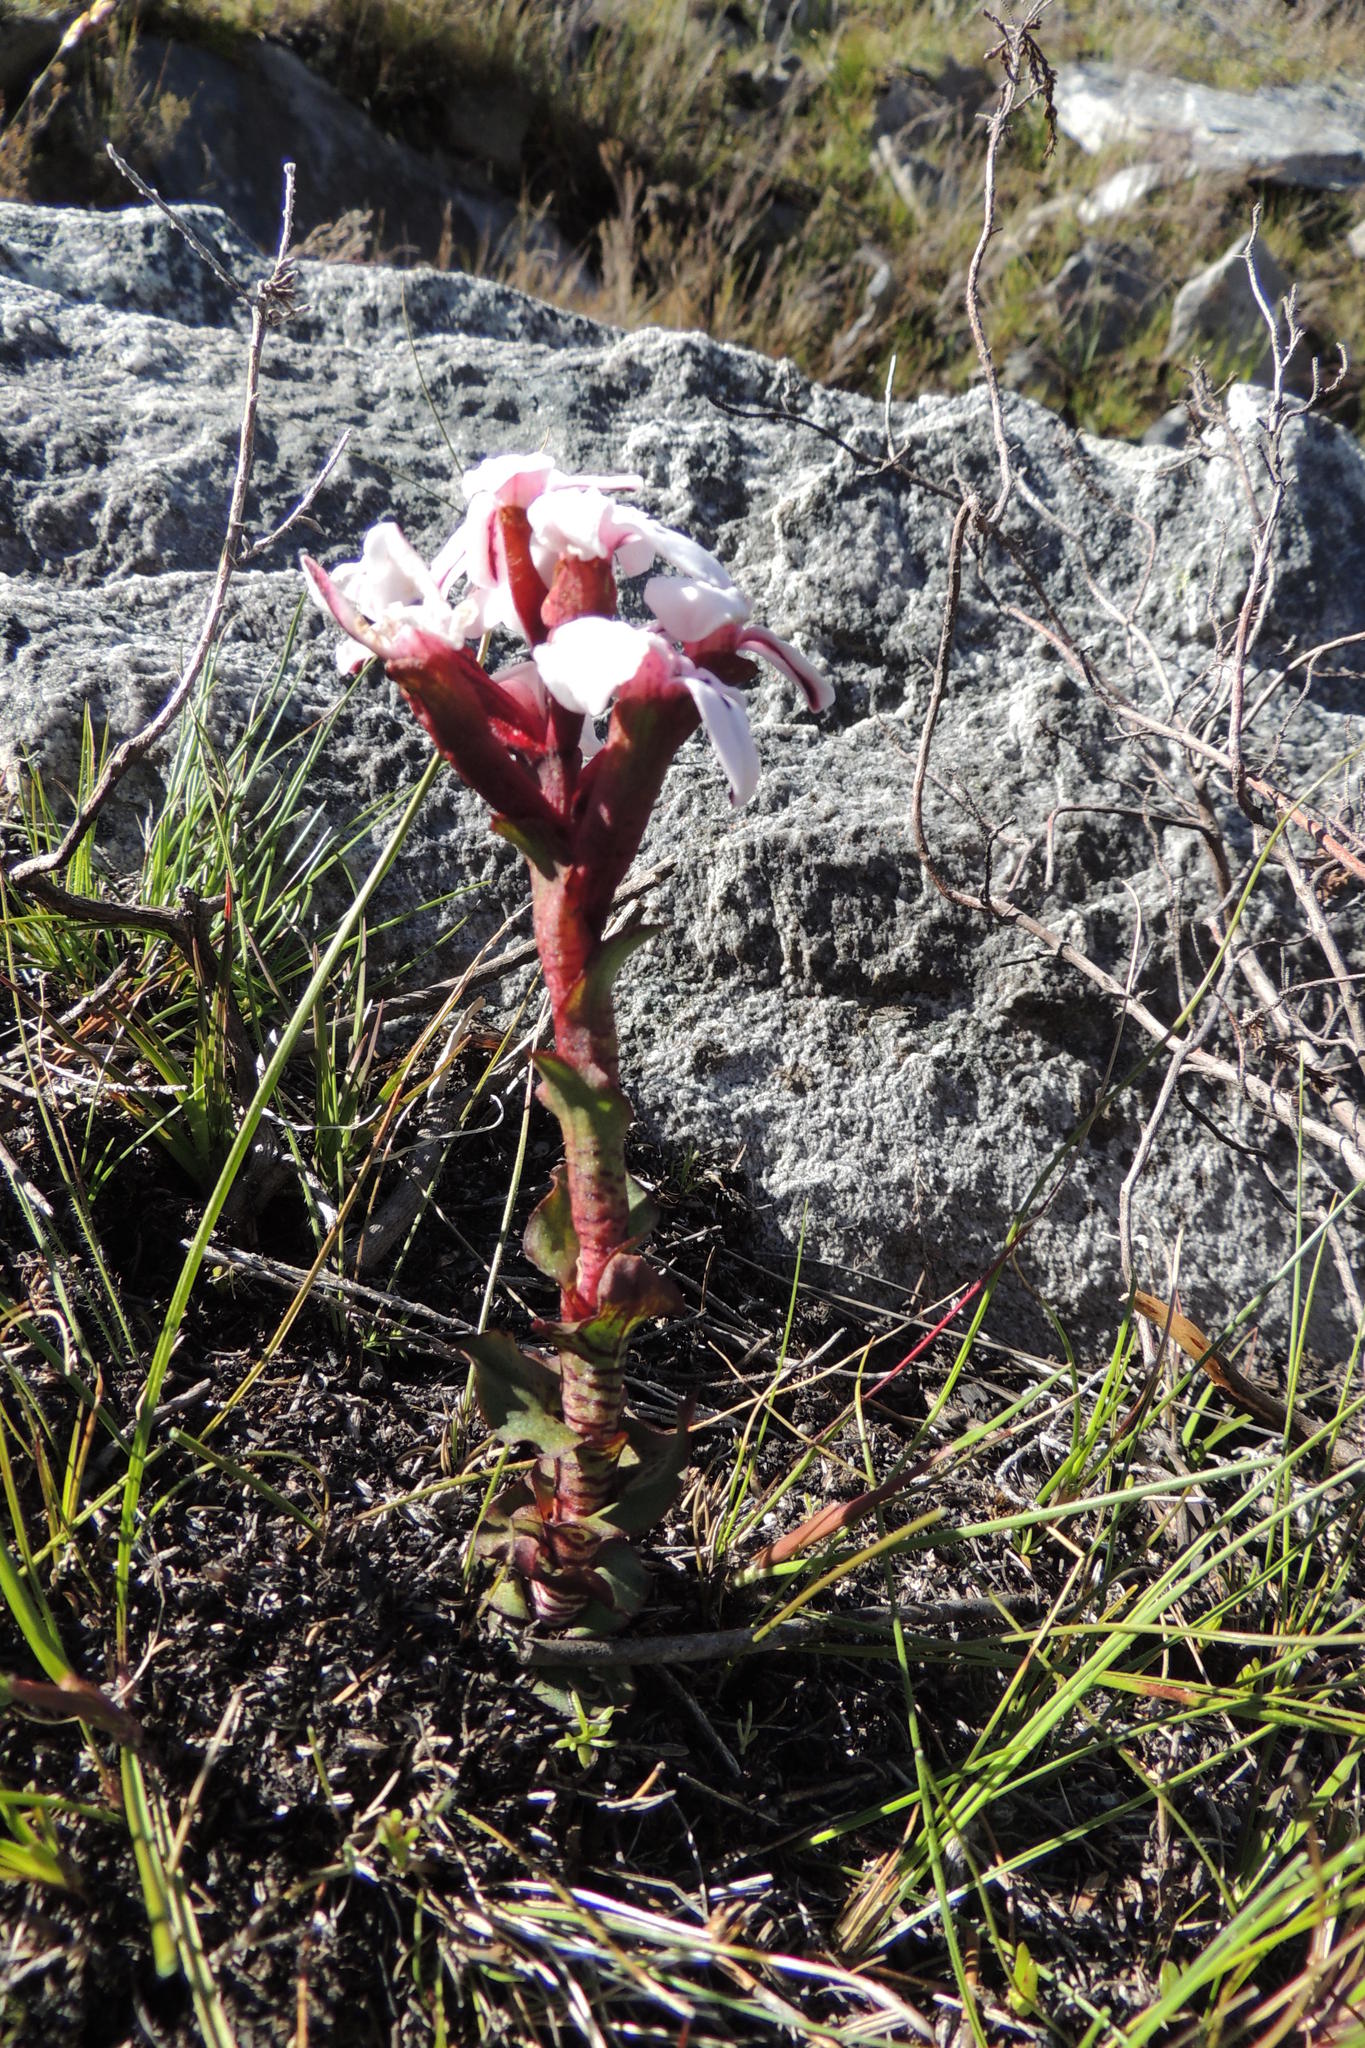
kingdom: Plantae
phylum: Tracheophyta
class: Liliopsida
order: Asparagales
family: Orchidaceae
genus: Disa
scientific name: Disa fasciata
